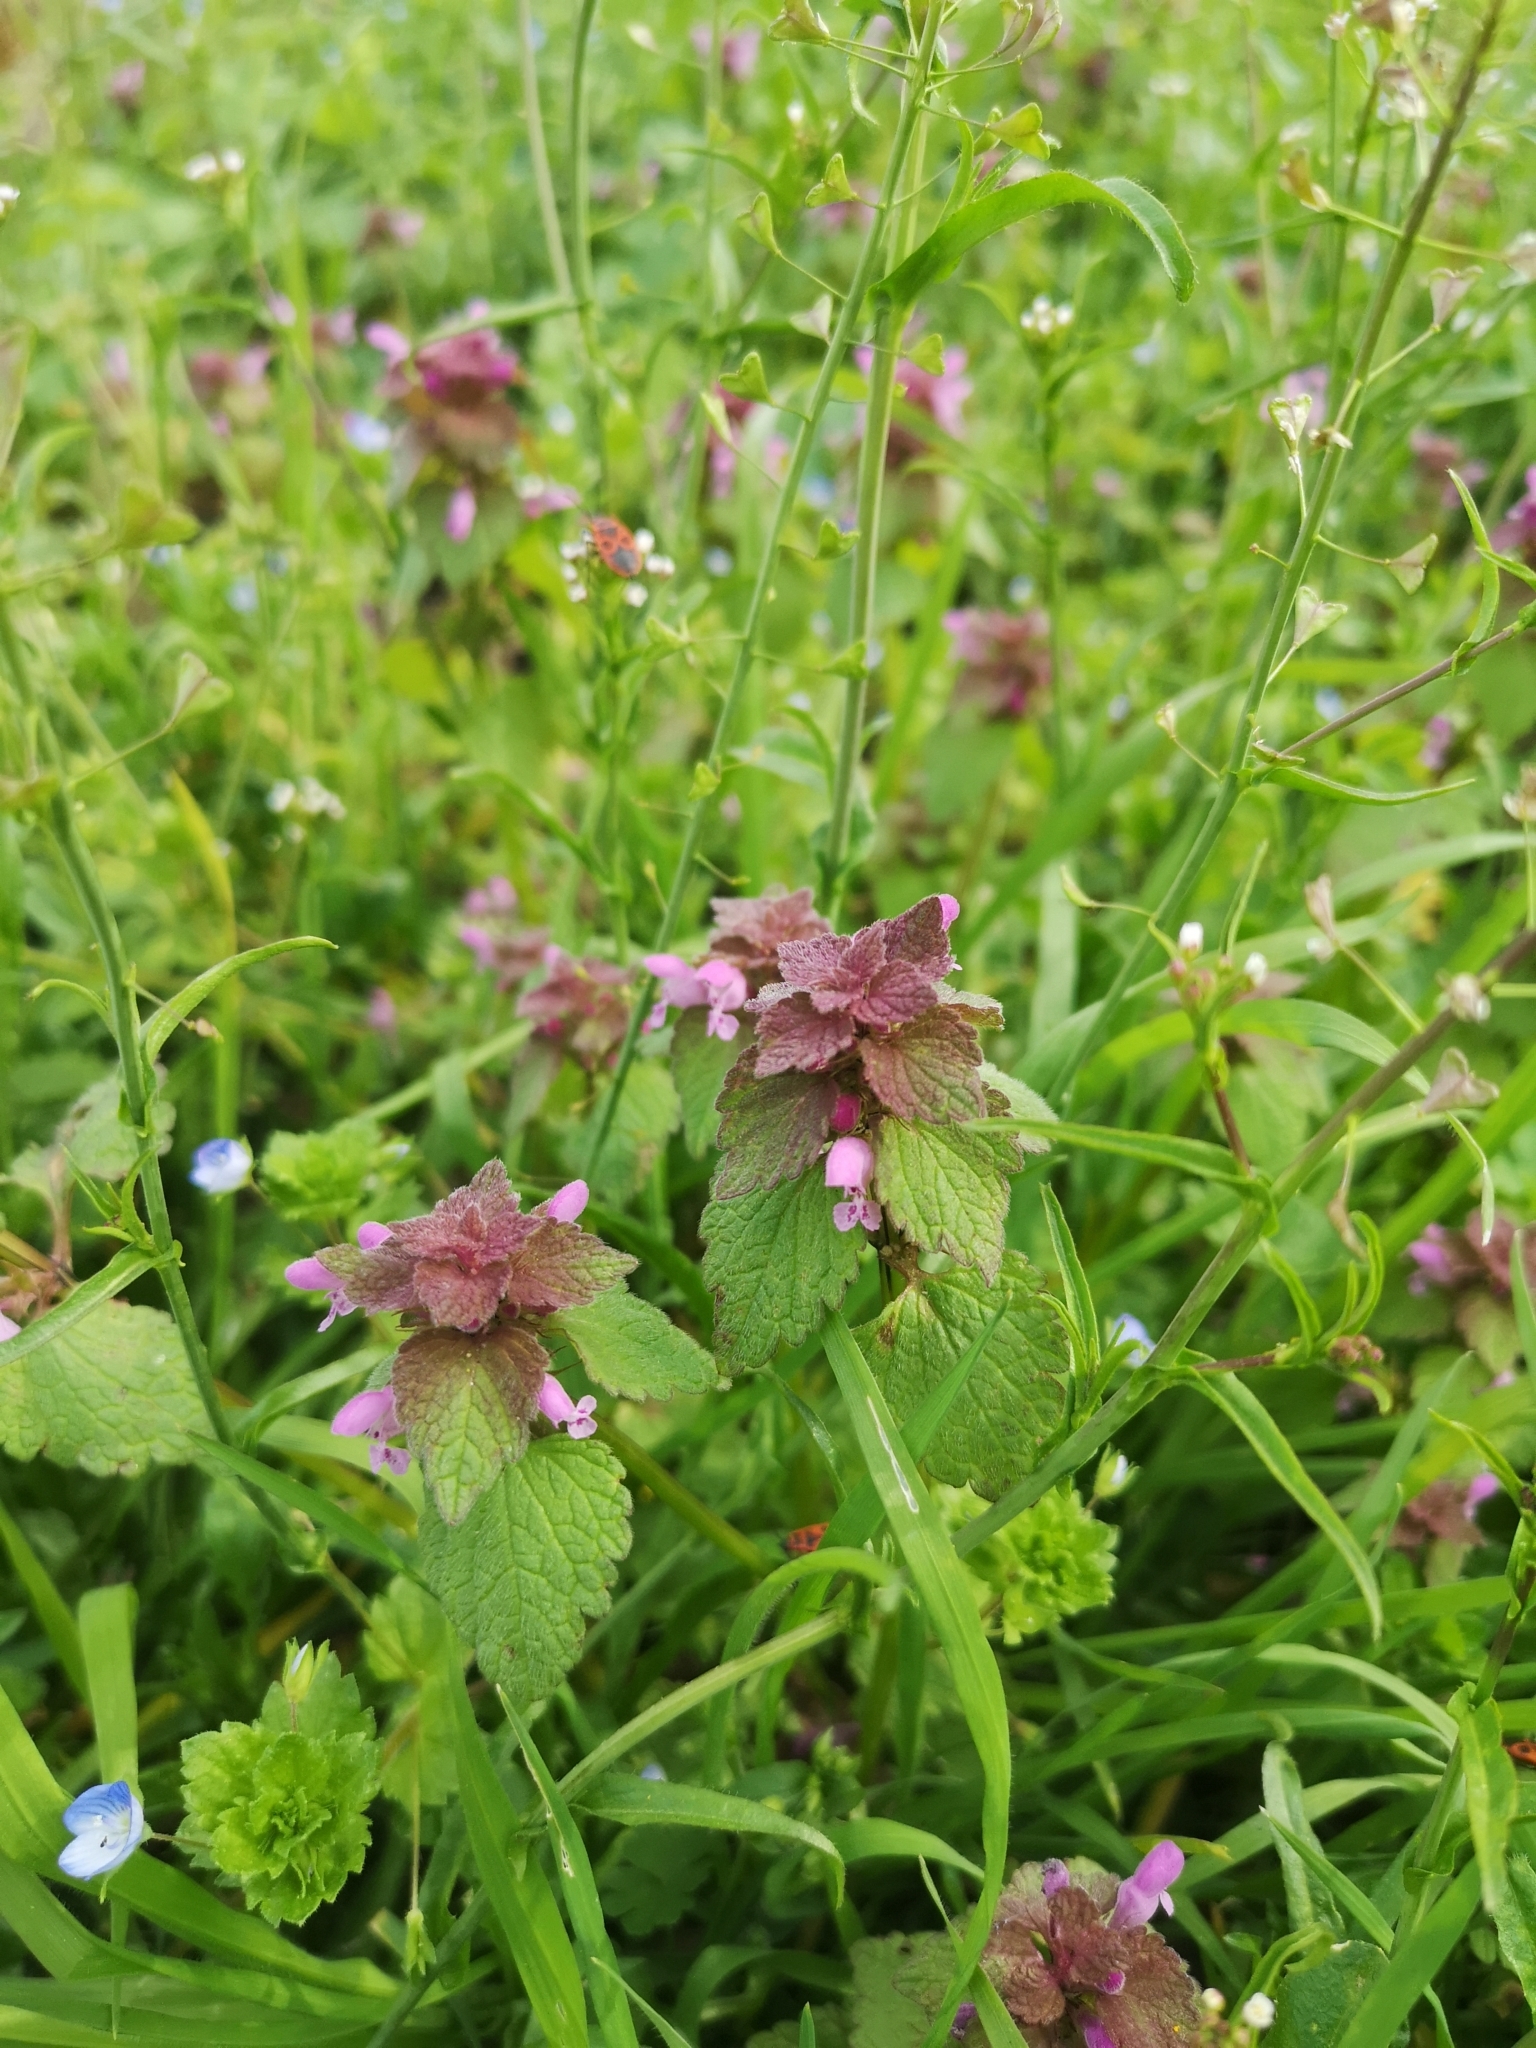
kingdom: Plantae
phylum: Tracheophyta
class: Magnoliopsida
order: Lamiales
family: Lamiaceae
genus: Lamium
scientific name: Lamium purpureum
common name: Red dead-nettle
